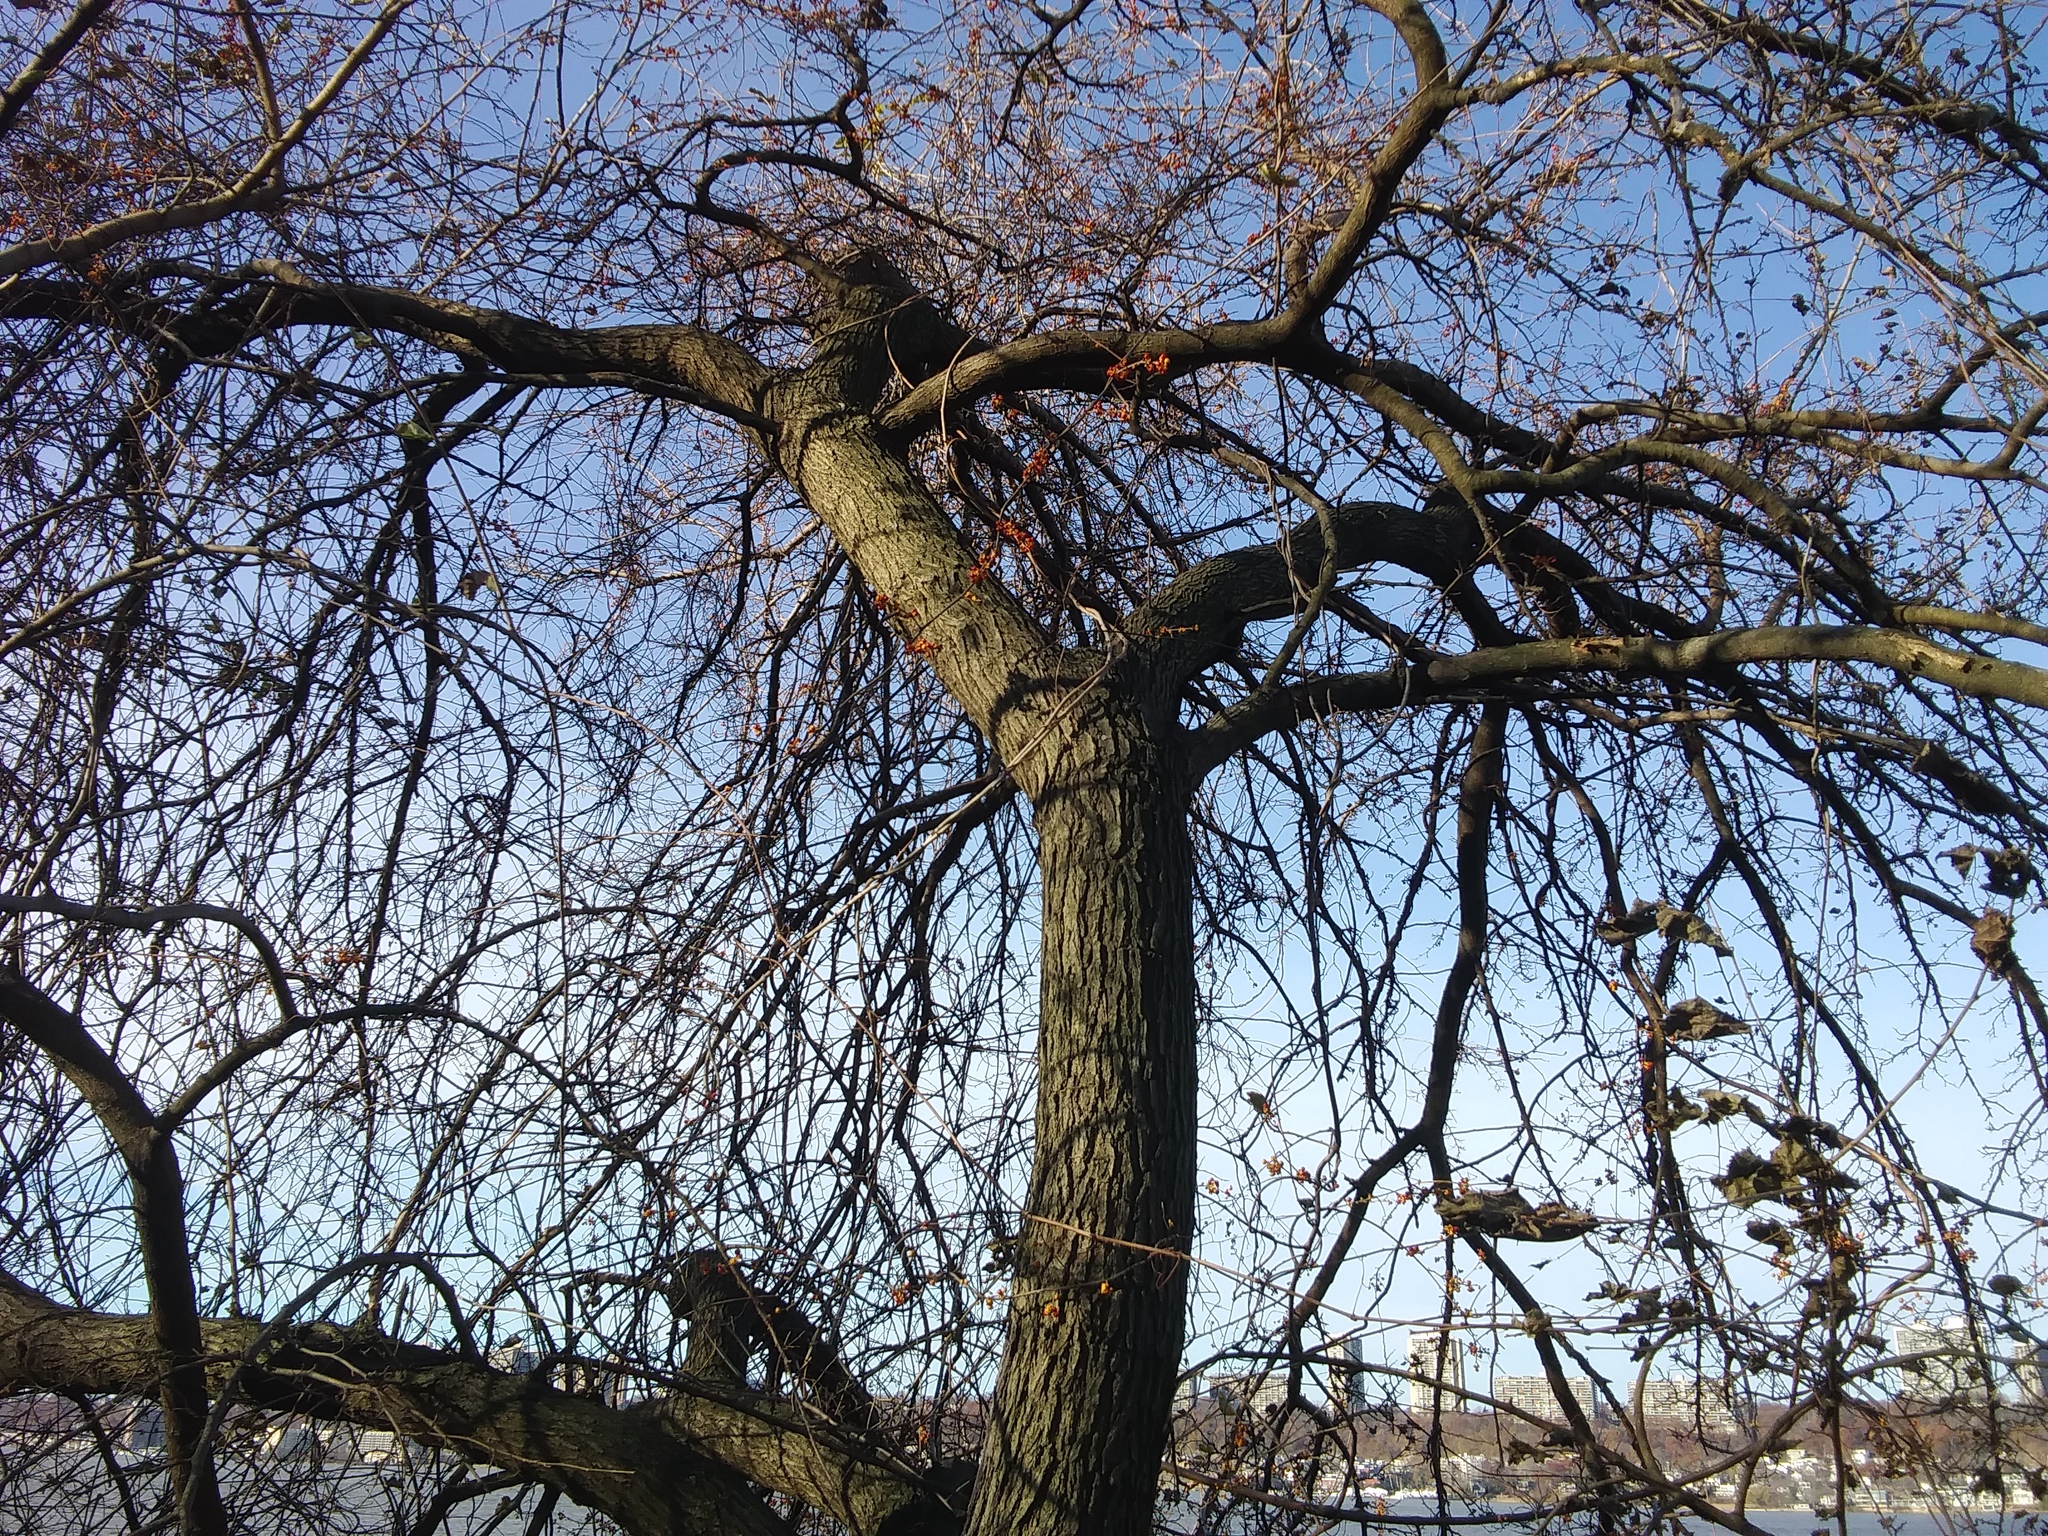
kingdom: Plantae
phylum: Tracheophyta
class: Magnoliopsida
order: Celastrales
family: Celastraceae
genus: Celastrus
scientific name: Celastrus orbiculatus
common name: Oriental bittersweet
